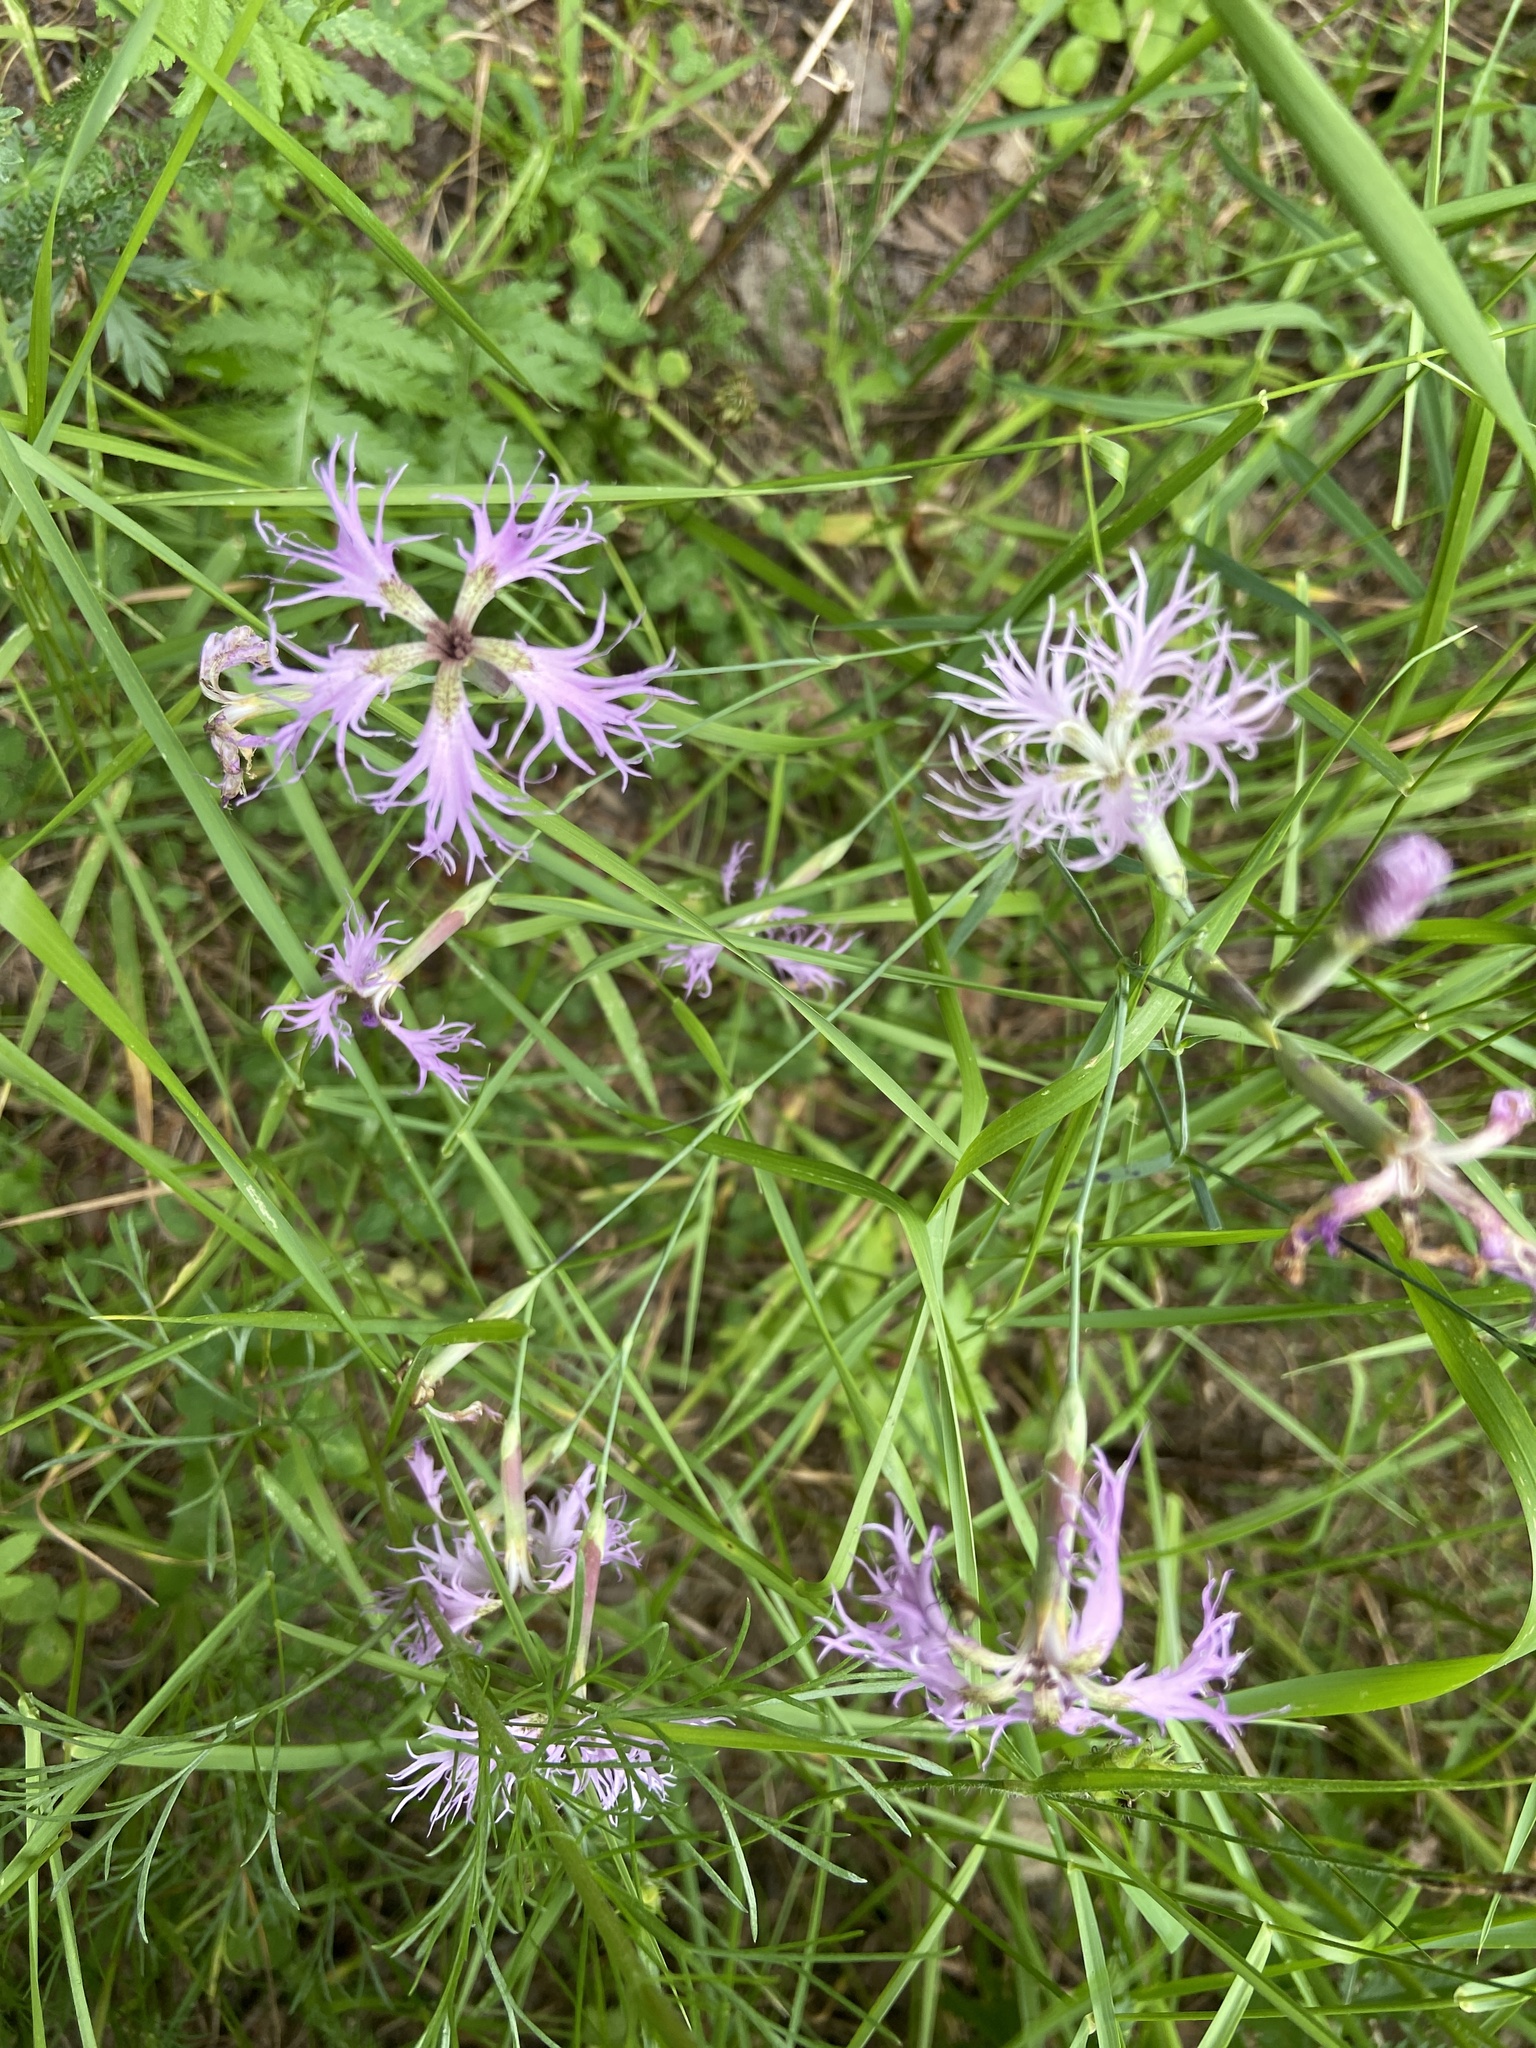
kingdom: Plantae
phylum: Tracheophyta
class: Magnoliopsida
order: Caryophyllales
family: Caryophyllaceae
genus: Dianthus
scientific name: Dianthus superbus
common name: Fringed pink
